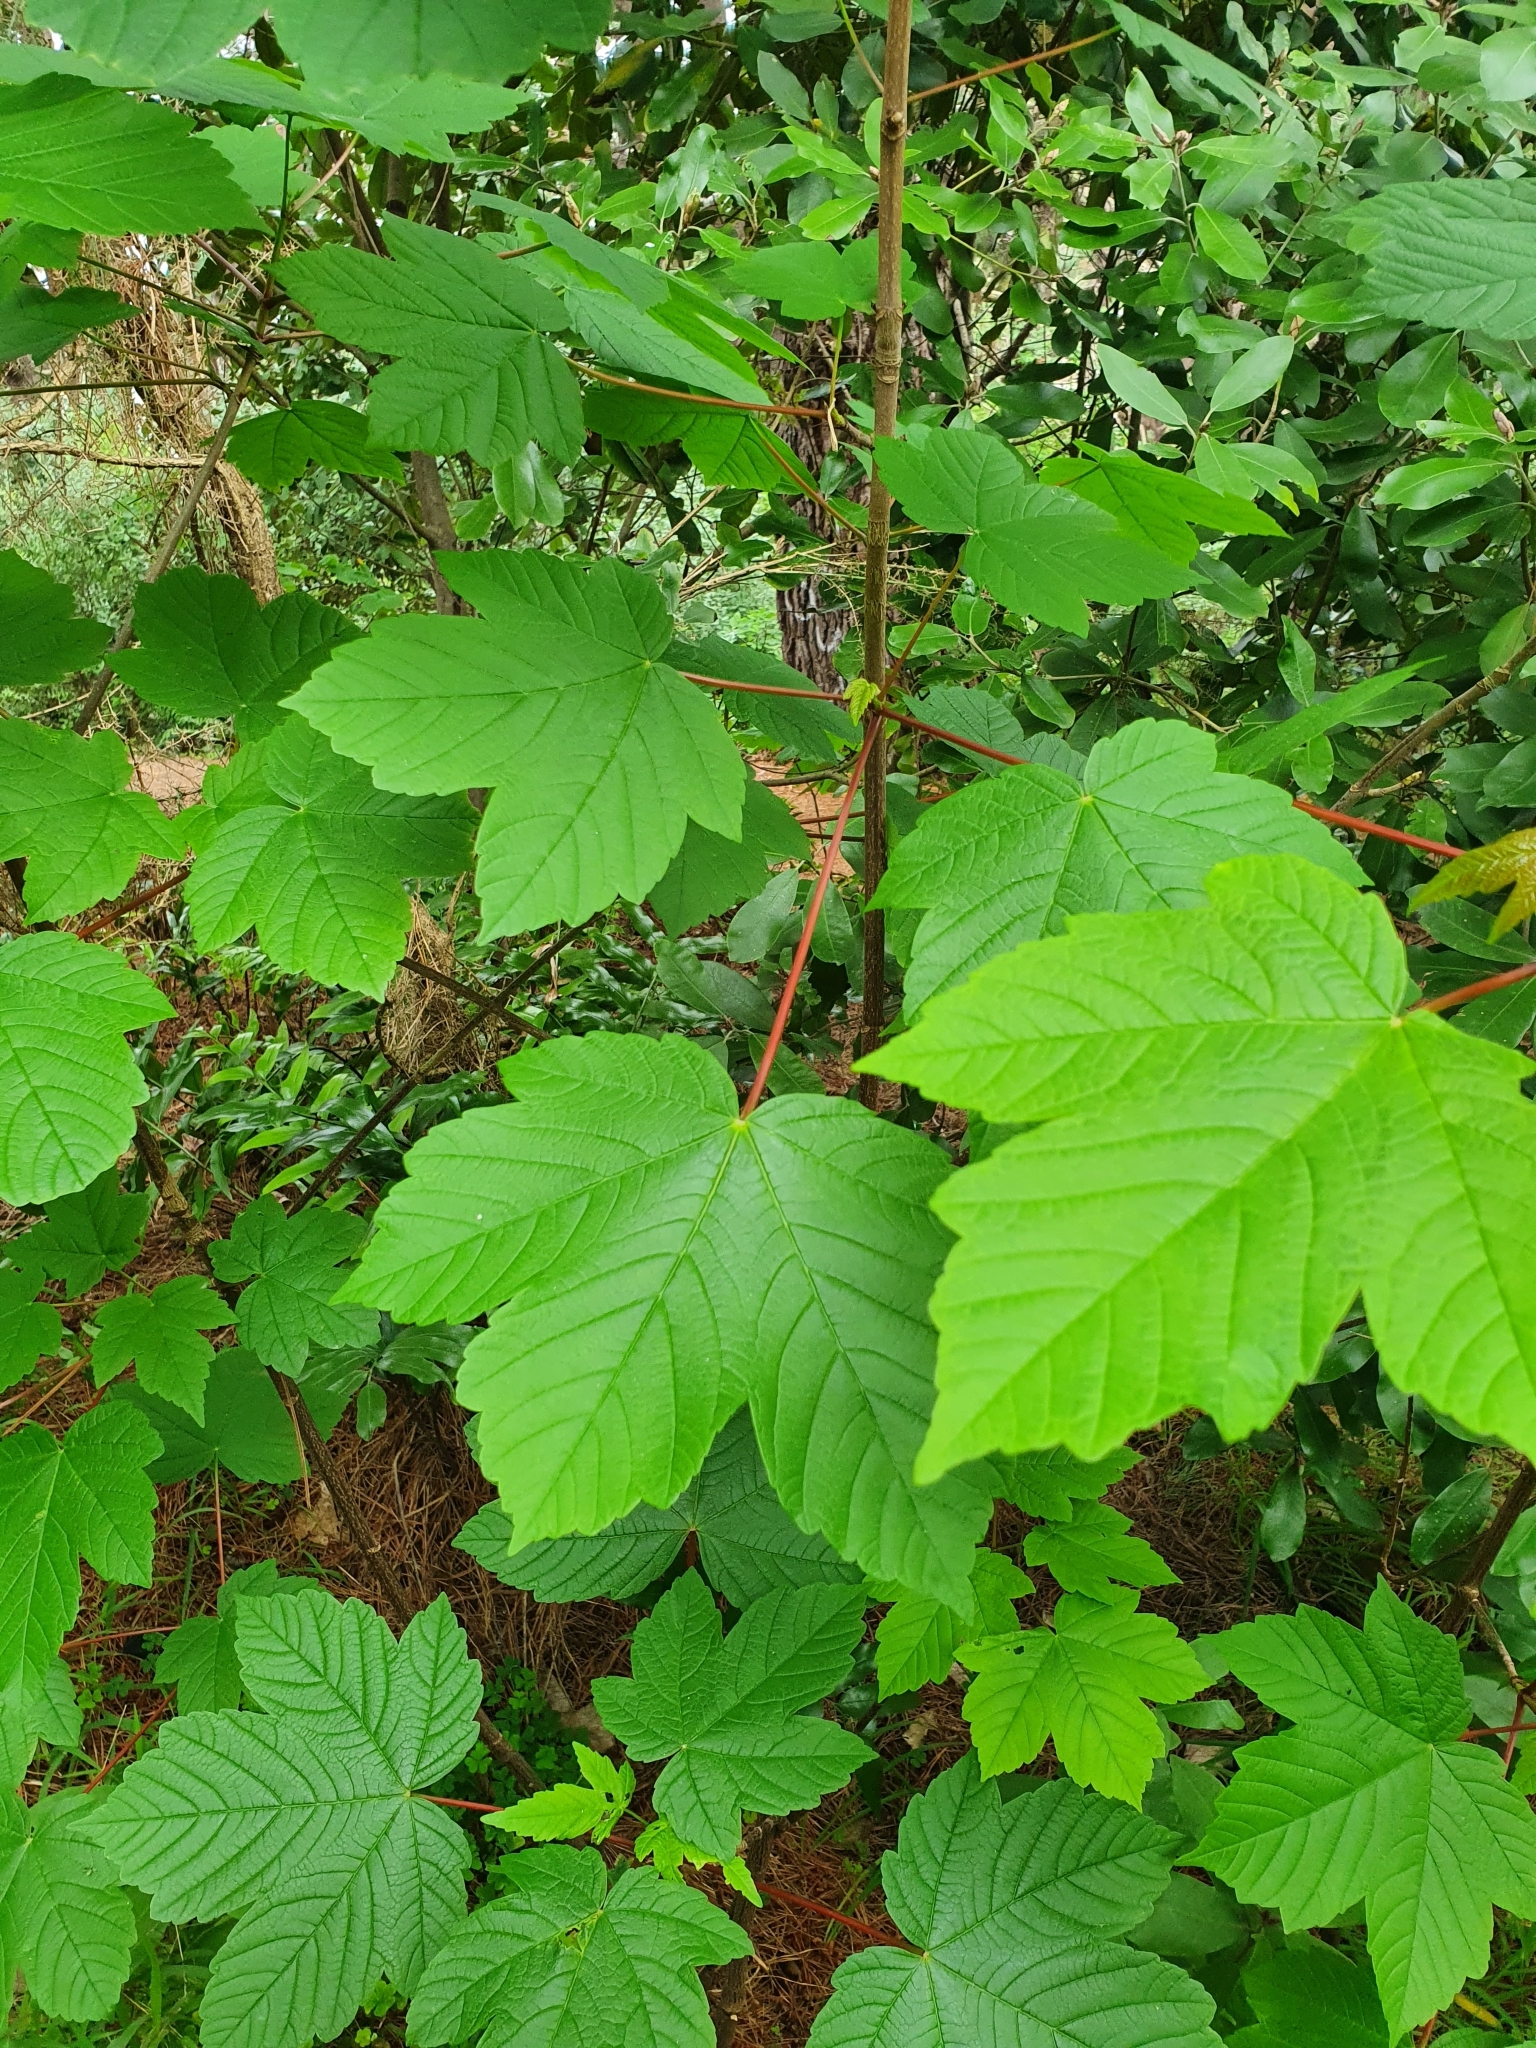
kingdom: Plantae
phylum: Tracheophyta
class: Magnoliopsida
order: Sapindales
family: Sapindaceae
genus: Acer
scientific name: Acer pseudoplatanus
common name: Sycamore
